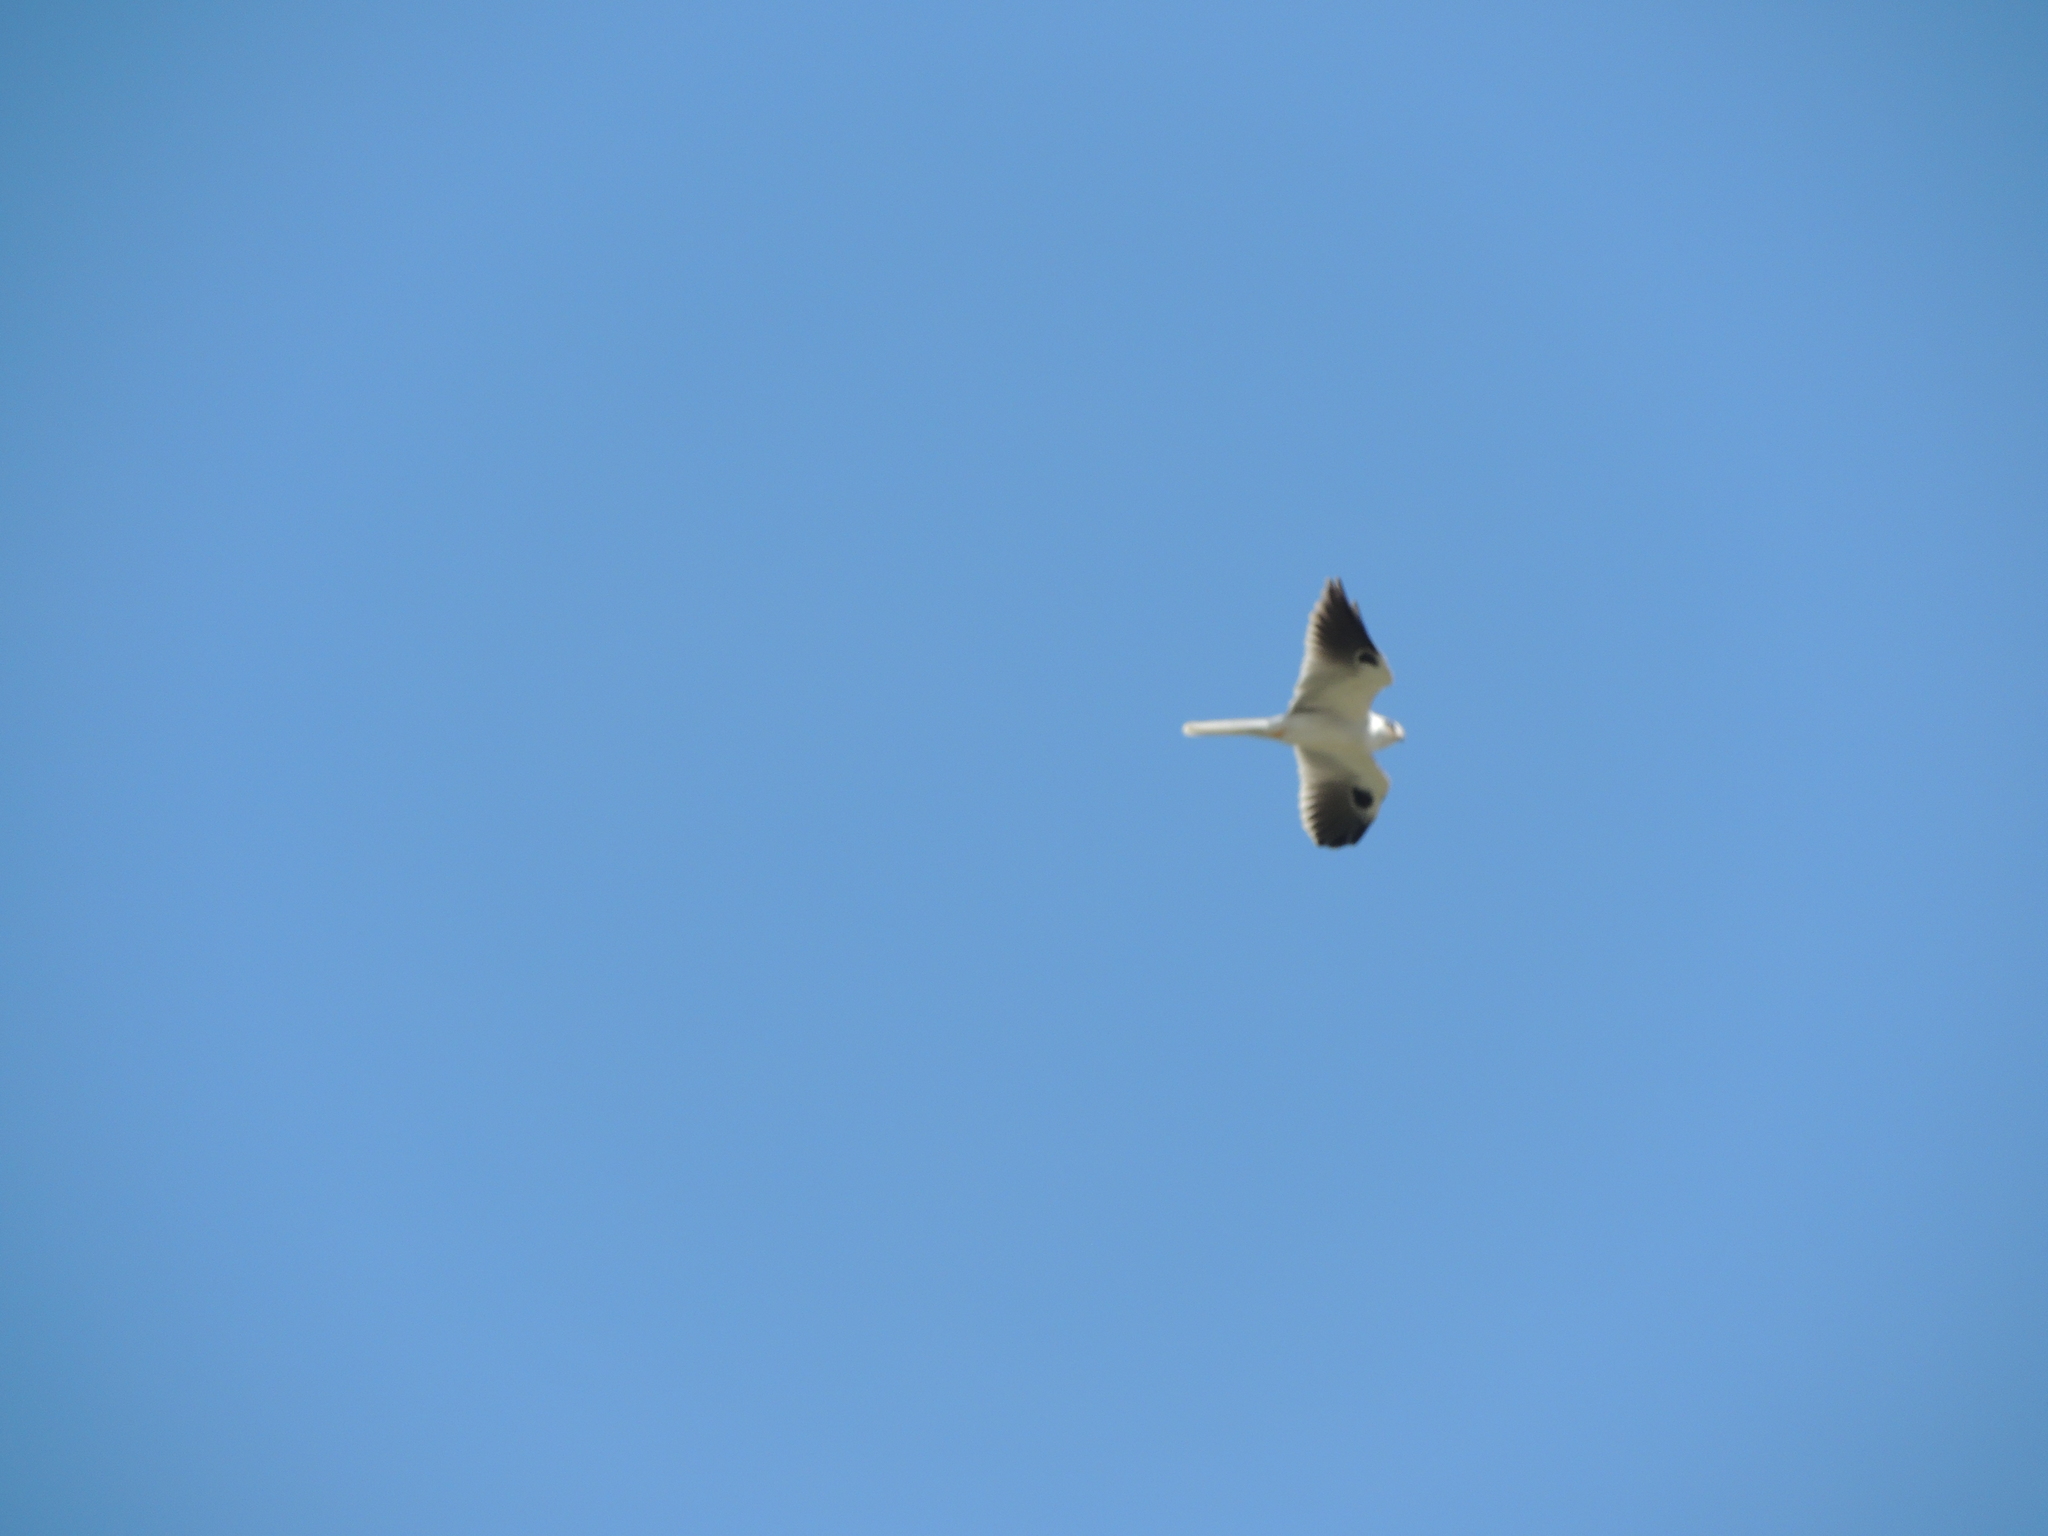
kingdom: Animalia
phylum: Chordata
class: Aves
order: Accipitriformes
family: Accipitridae
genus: Elanus
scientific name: Elanus leucurus
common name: White-tailed kite
